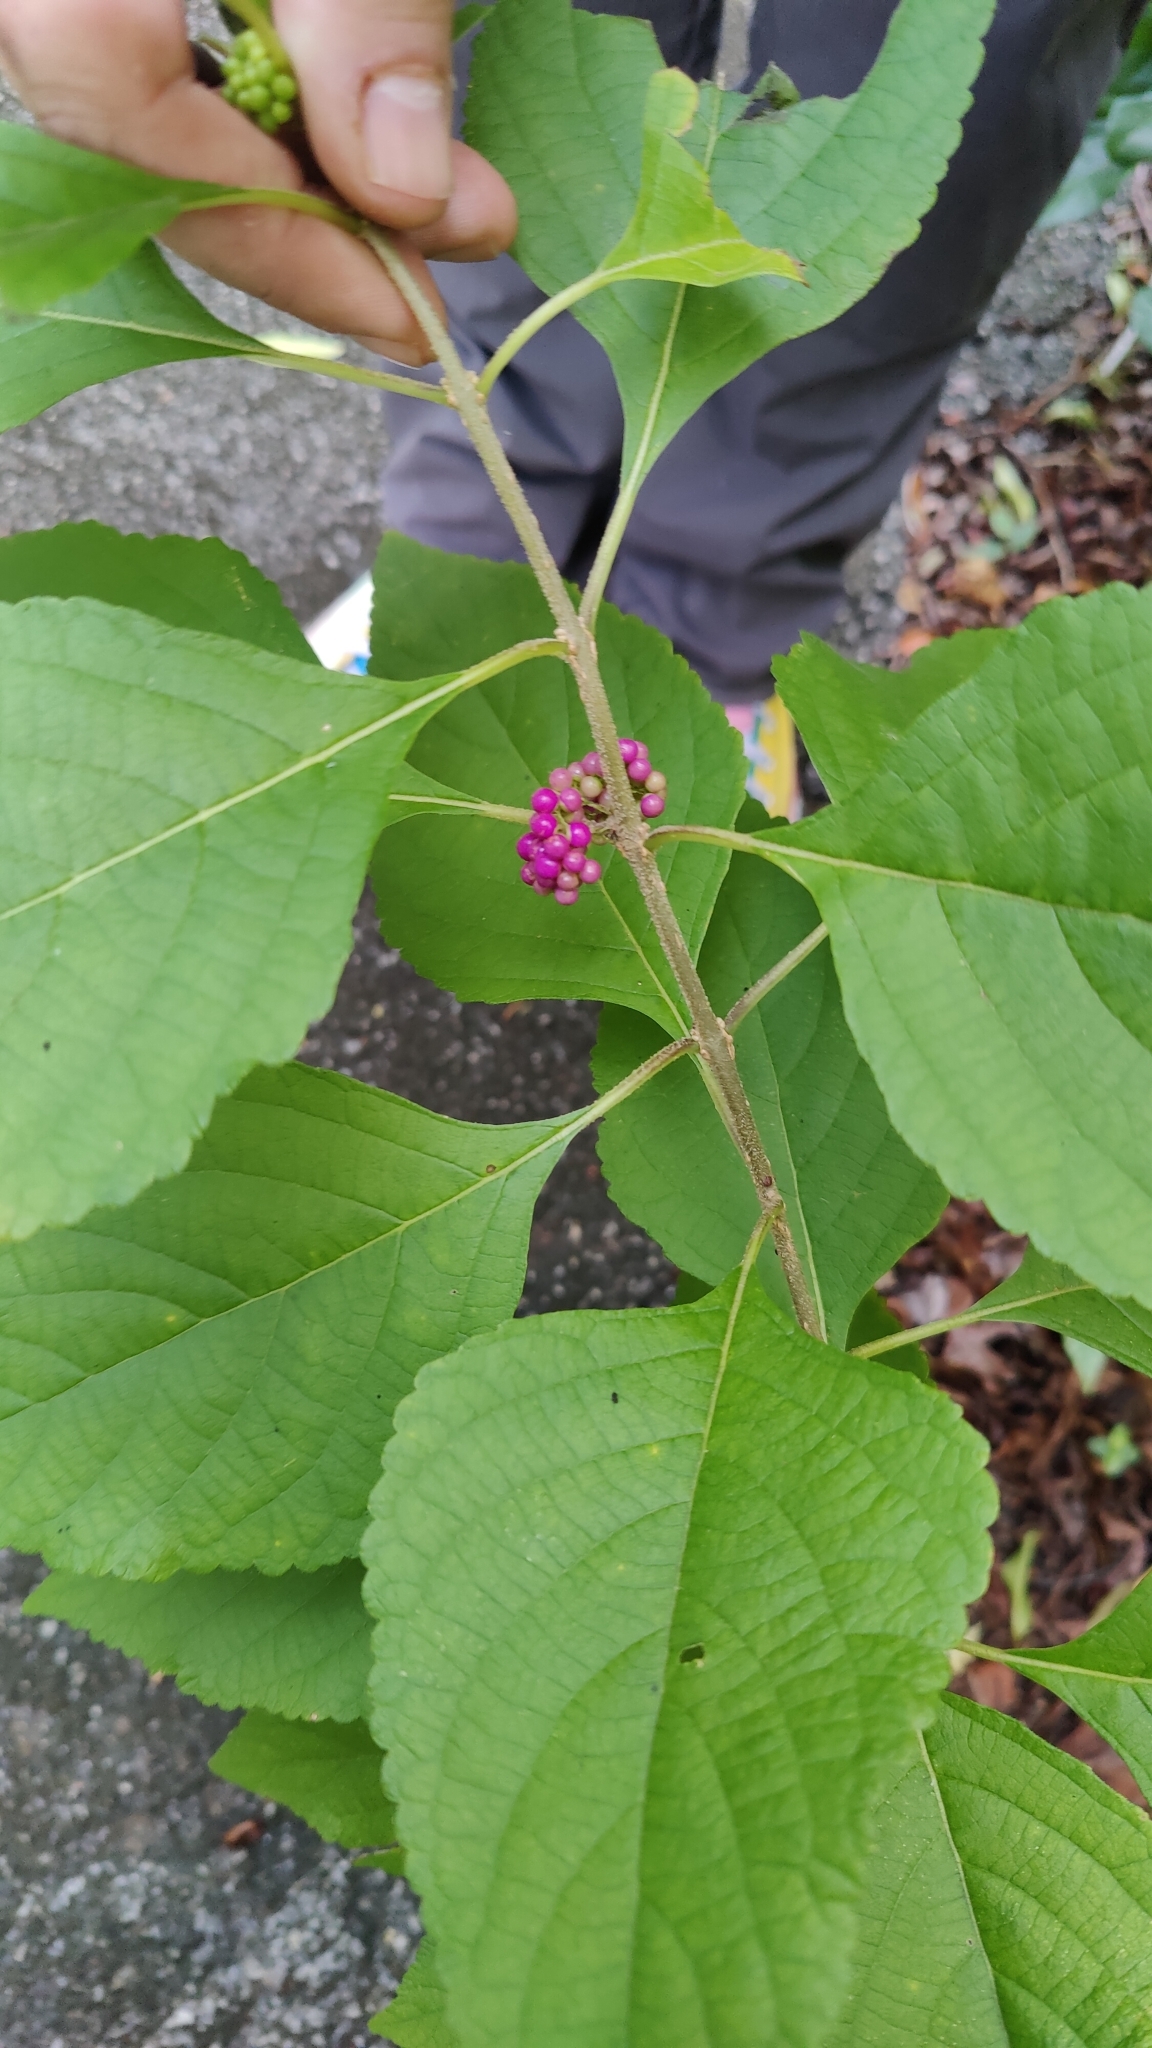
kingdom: Plantae
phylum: Tracheophyta
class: Magnoliopsida
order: Lamiales
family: Lamiaceae
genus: Callicarpa
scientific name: Callicarpa americana
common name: American beautyberry
